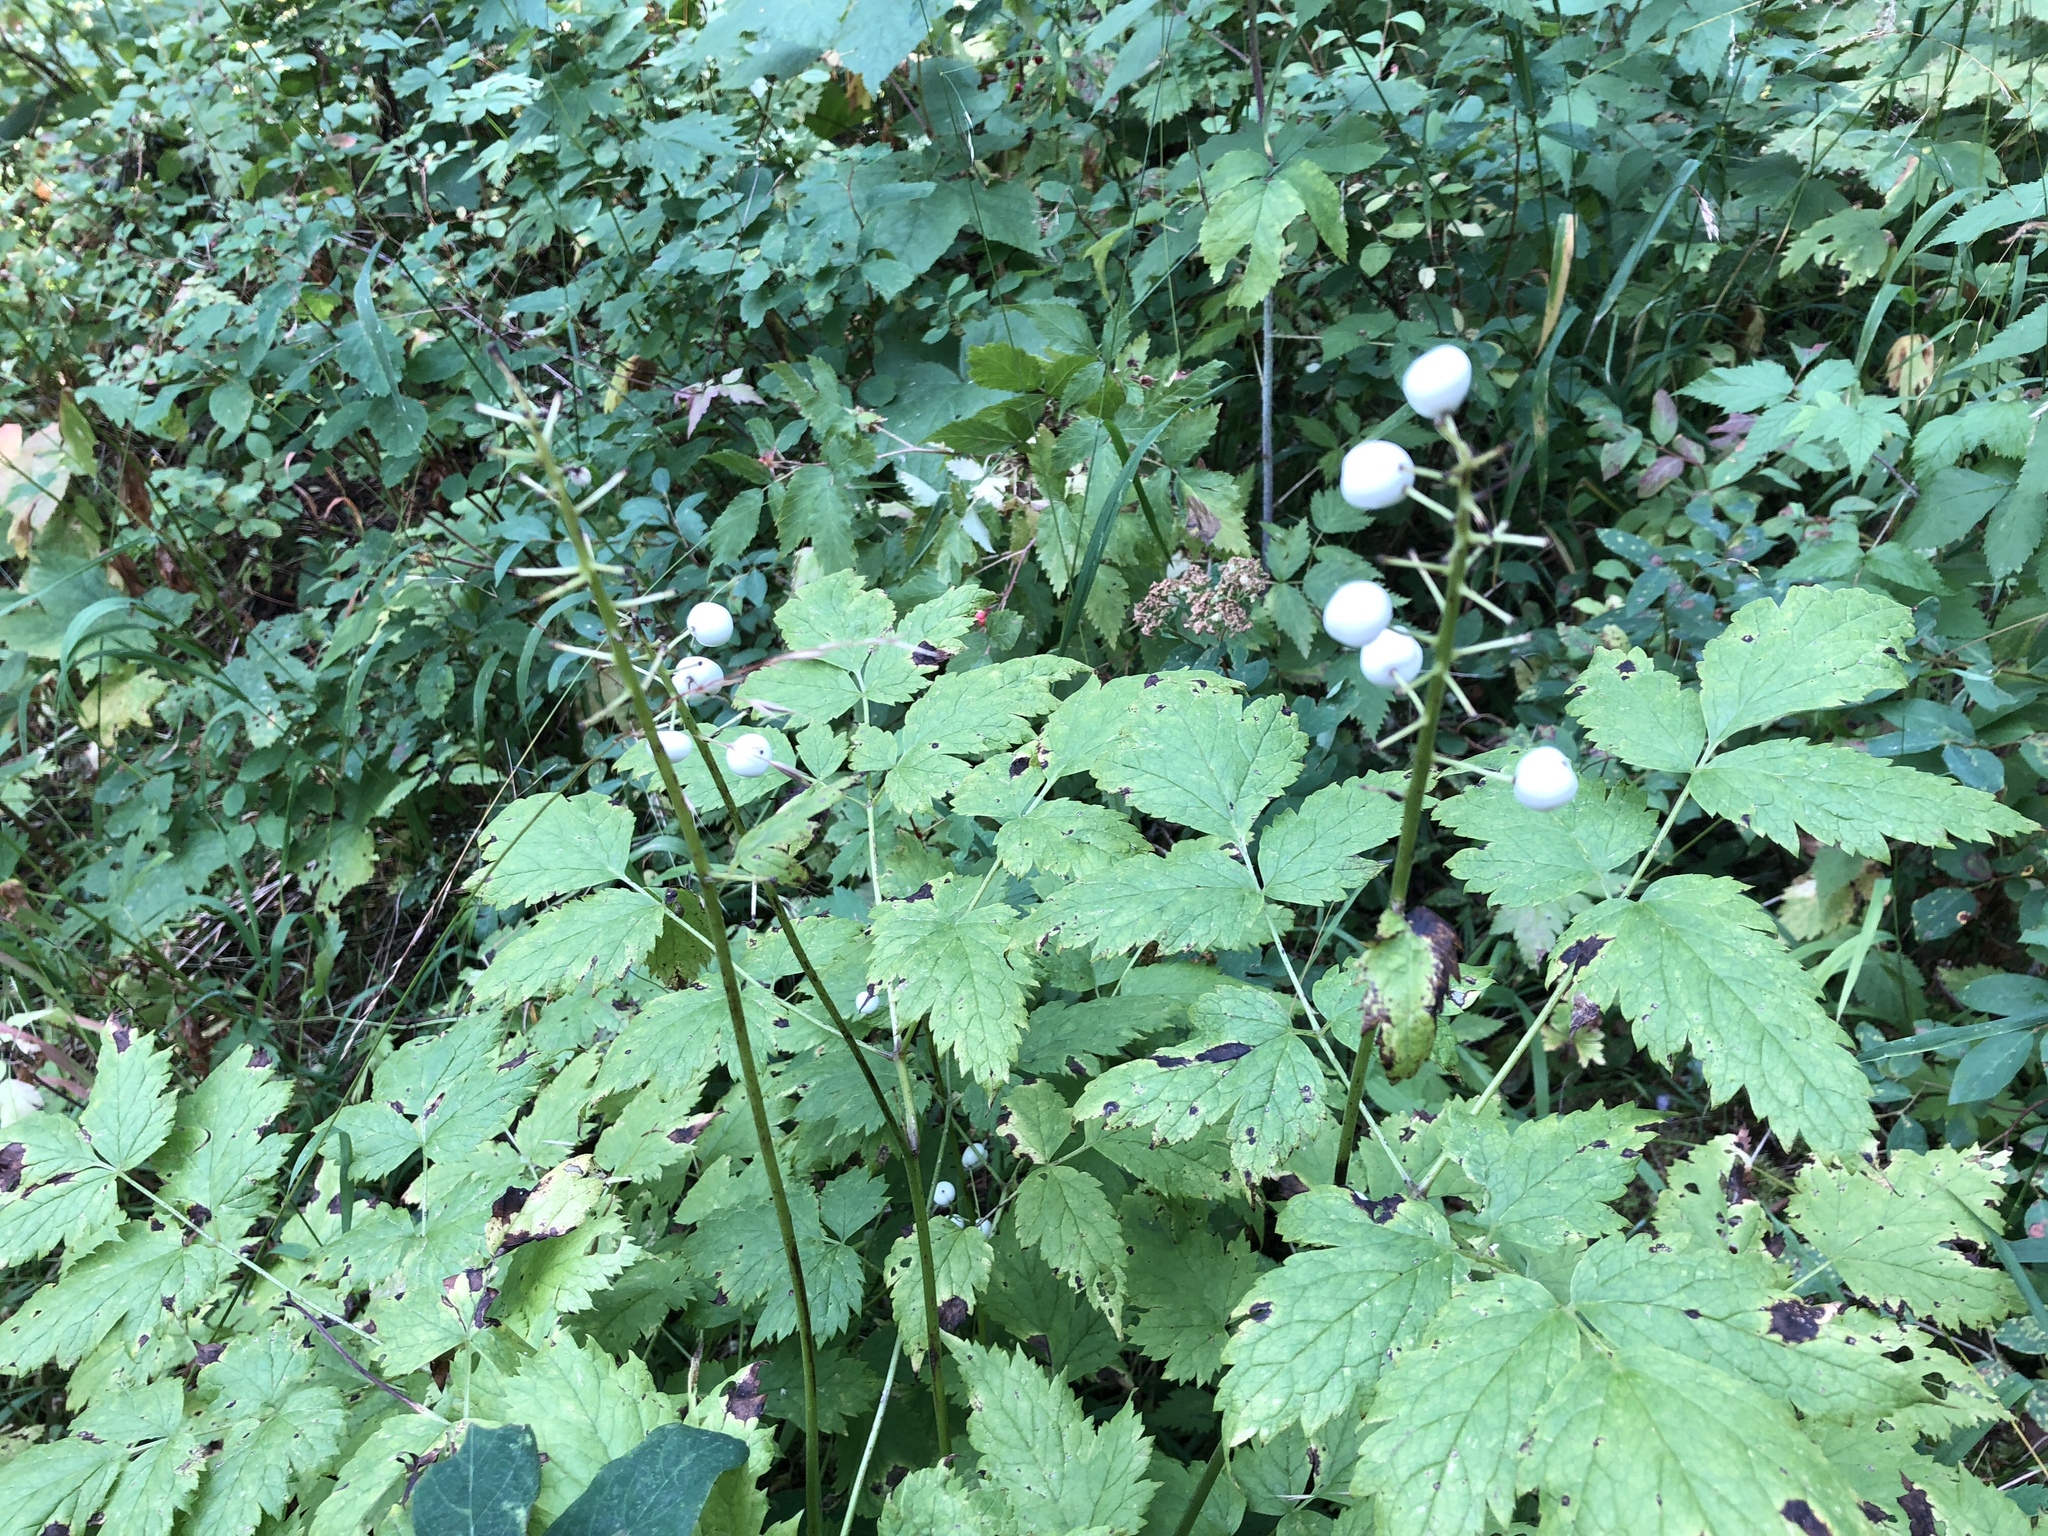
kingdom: Plantae
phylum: Tracheophyta
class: Magnoliopsida
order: Ranunculales
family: Ranunculaceae
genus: Actaea
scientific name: Actaea rubra
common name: Red baneberry
